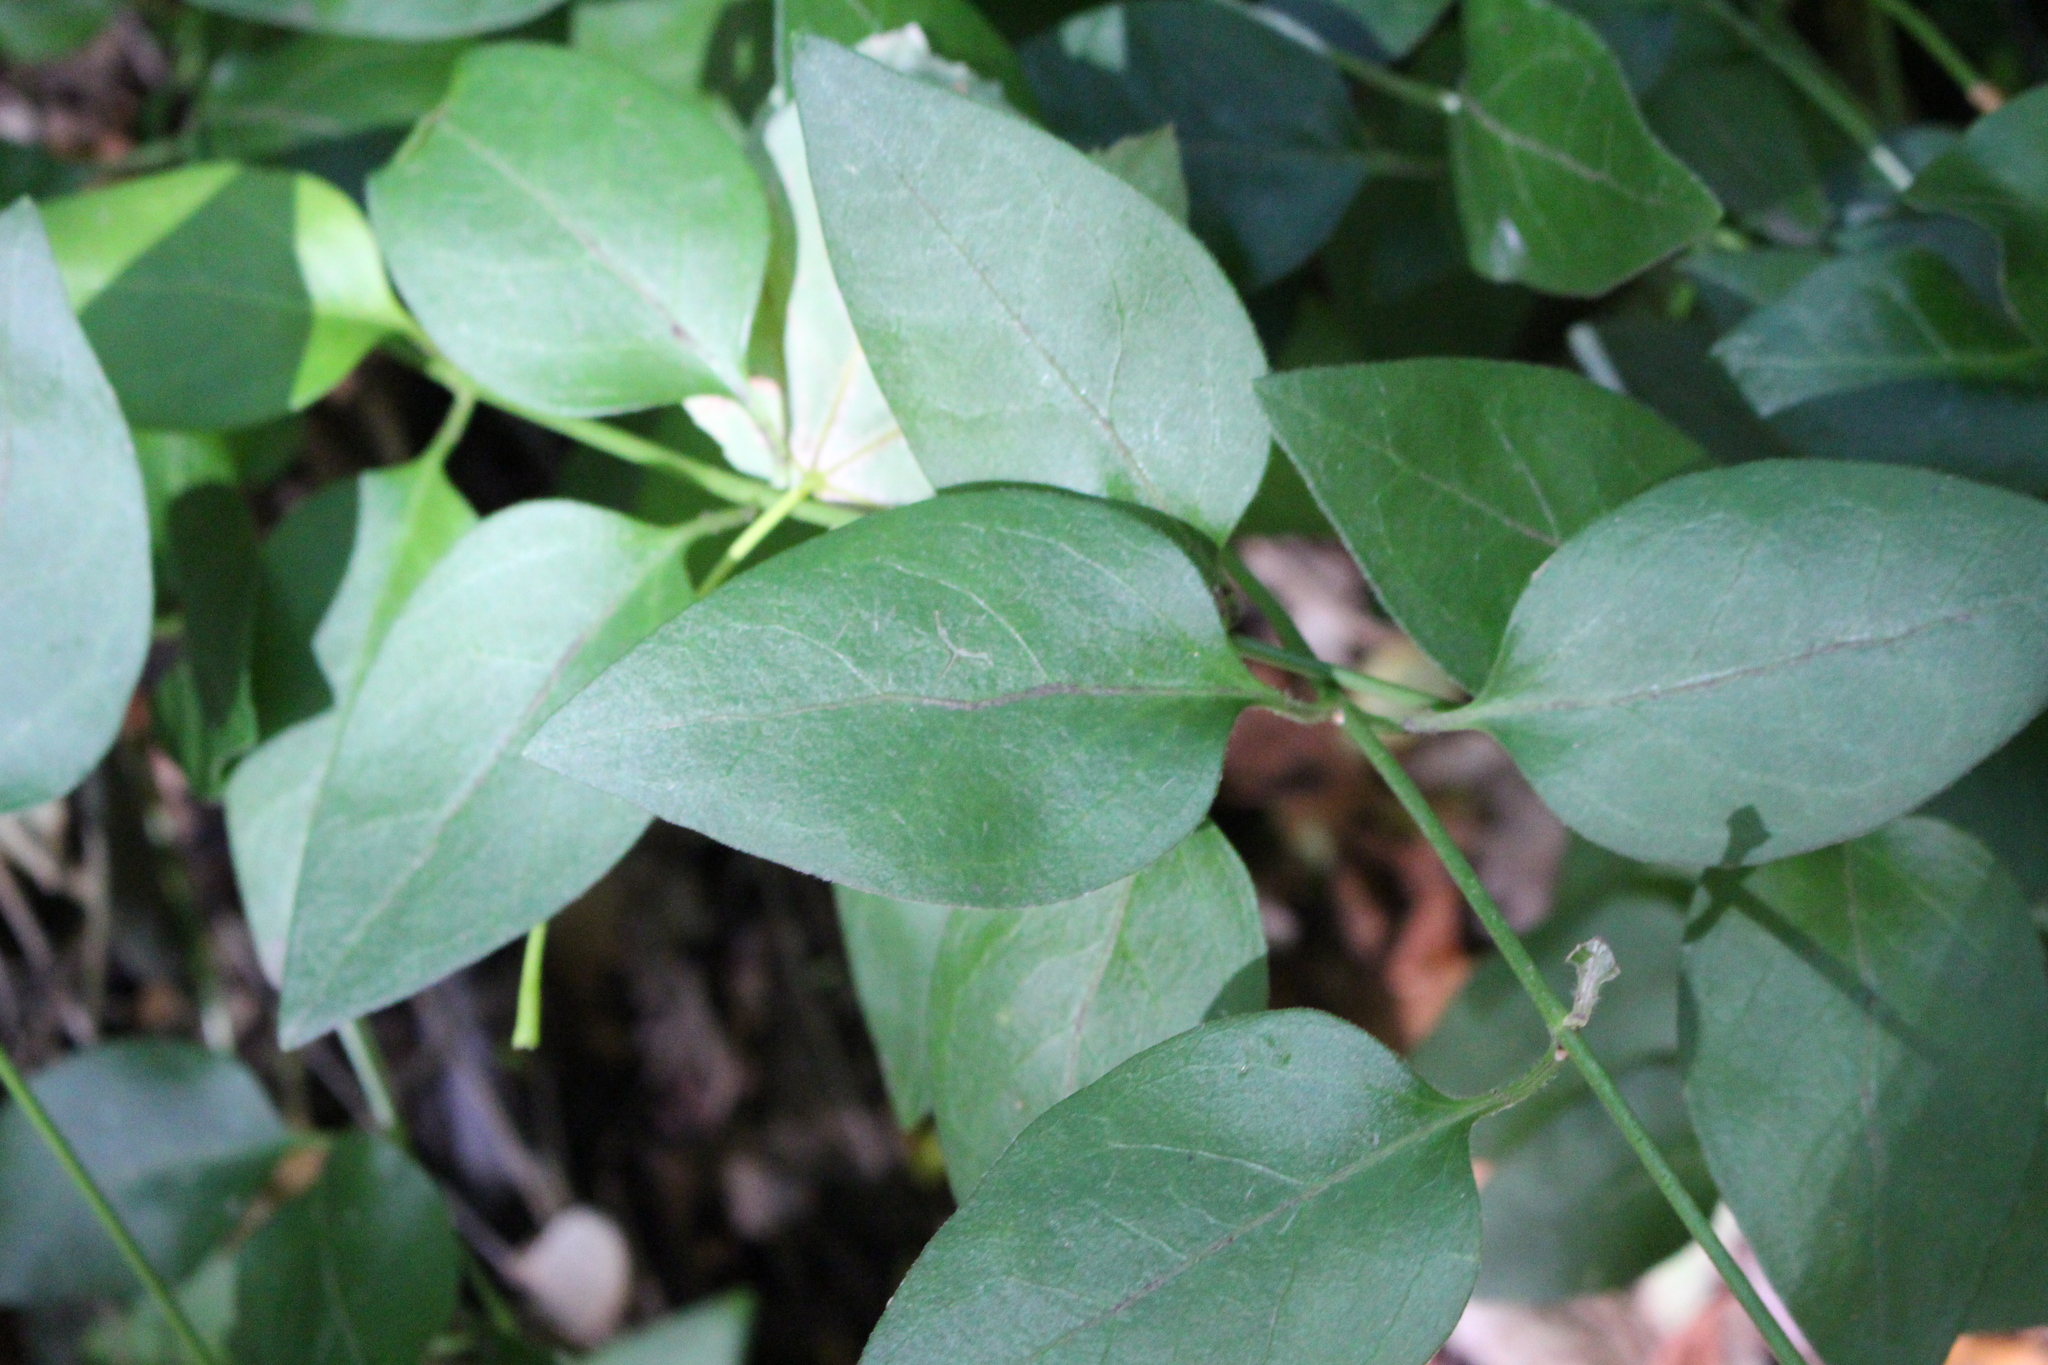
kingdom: Plantae
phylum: Tracheophyta
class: Magnoliopsida
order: Gentianales
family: Apocynaceae
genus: Vinca
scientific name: Vinca major
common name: Greater periwinkle
